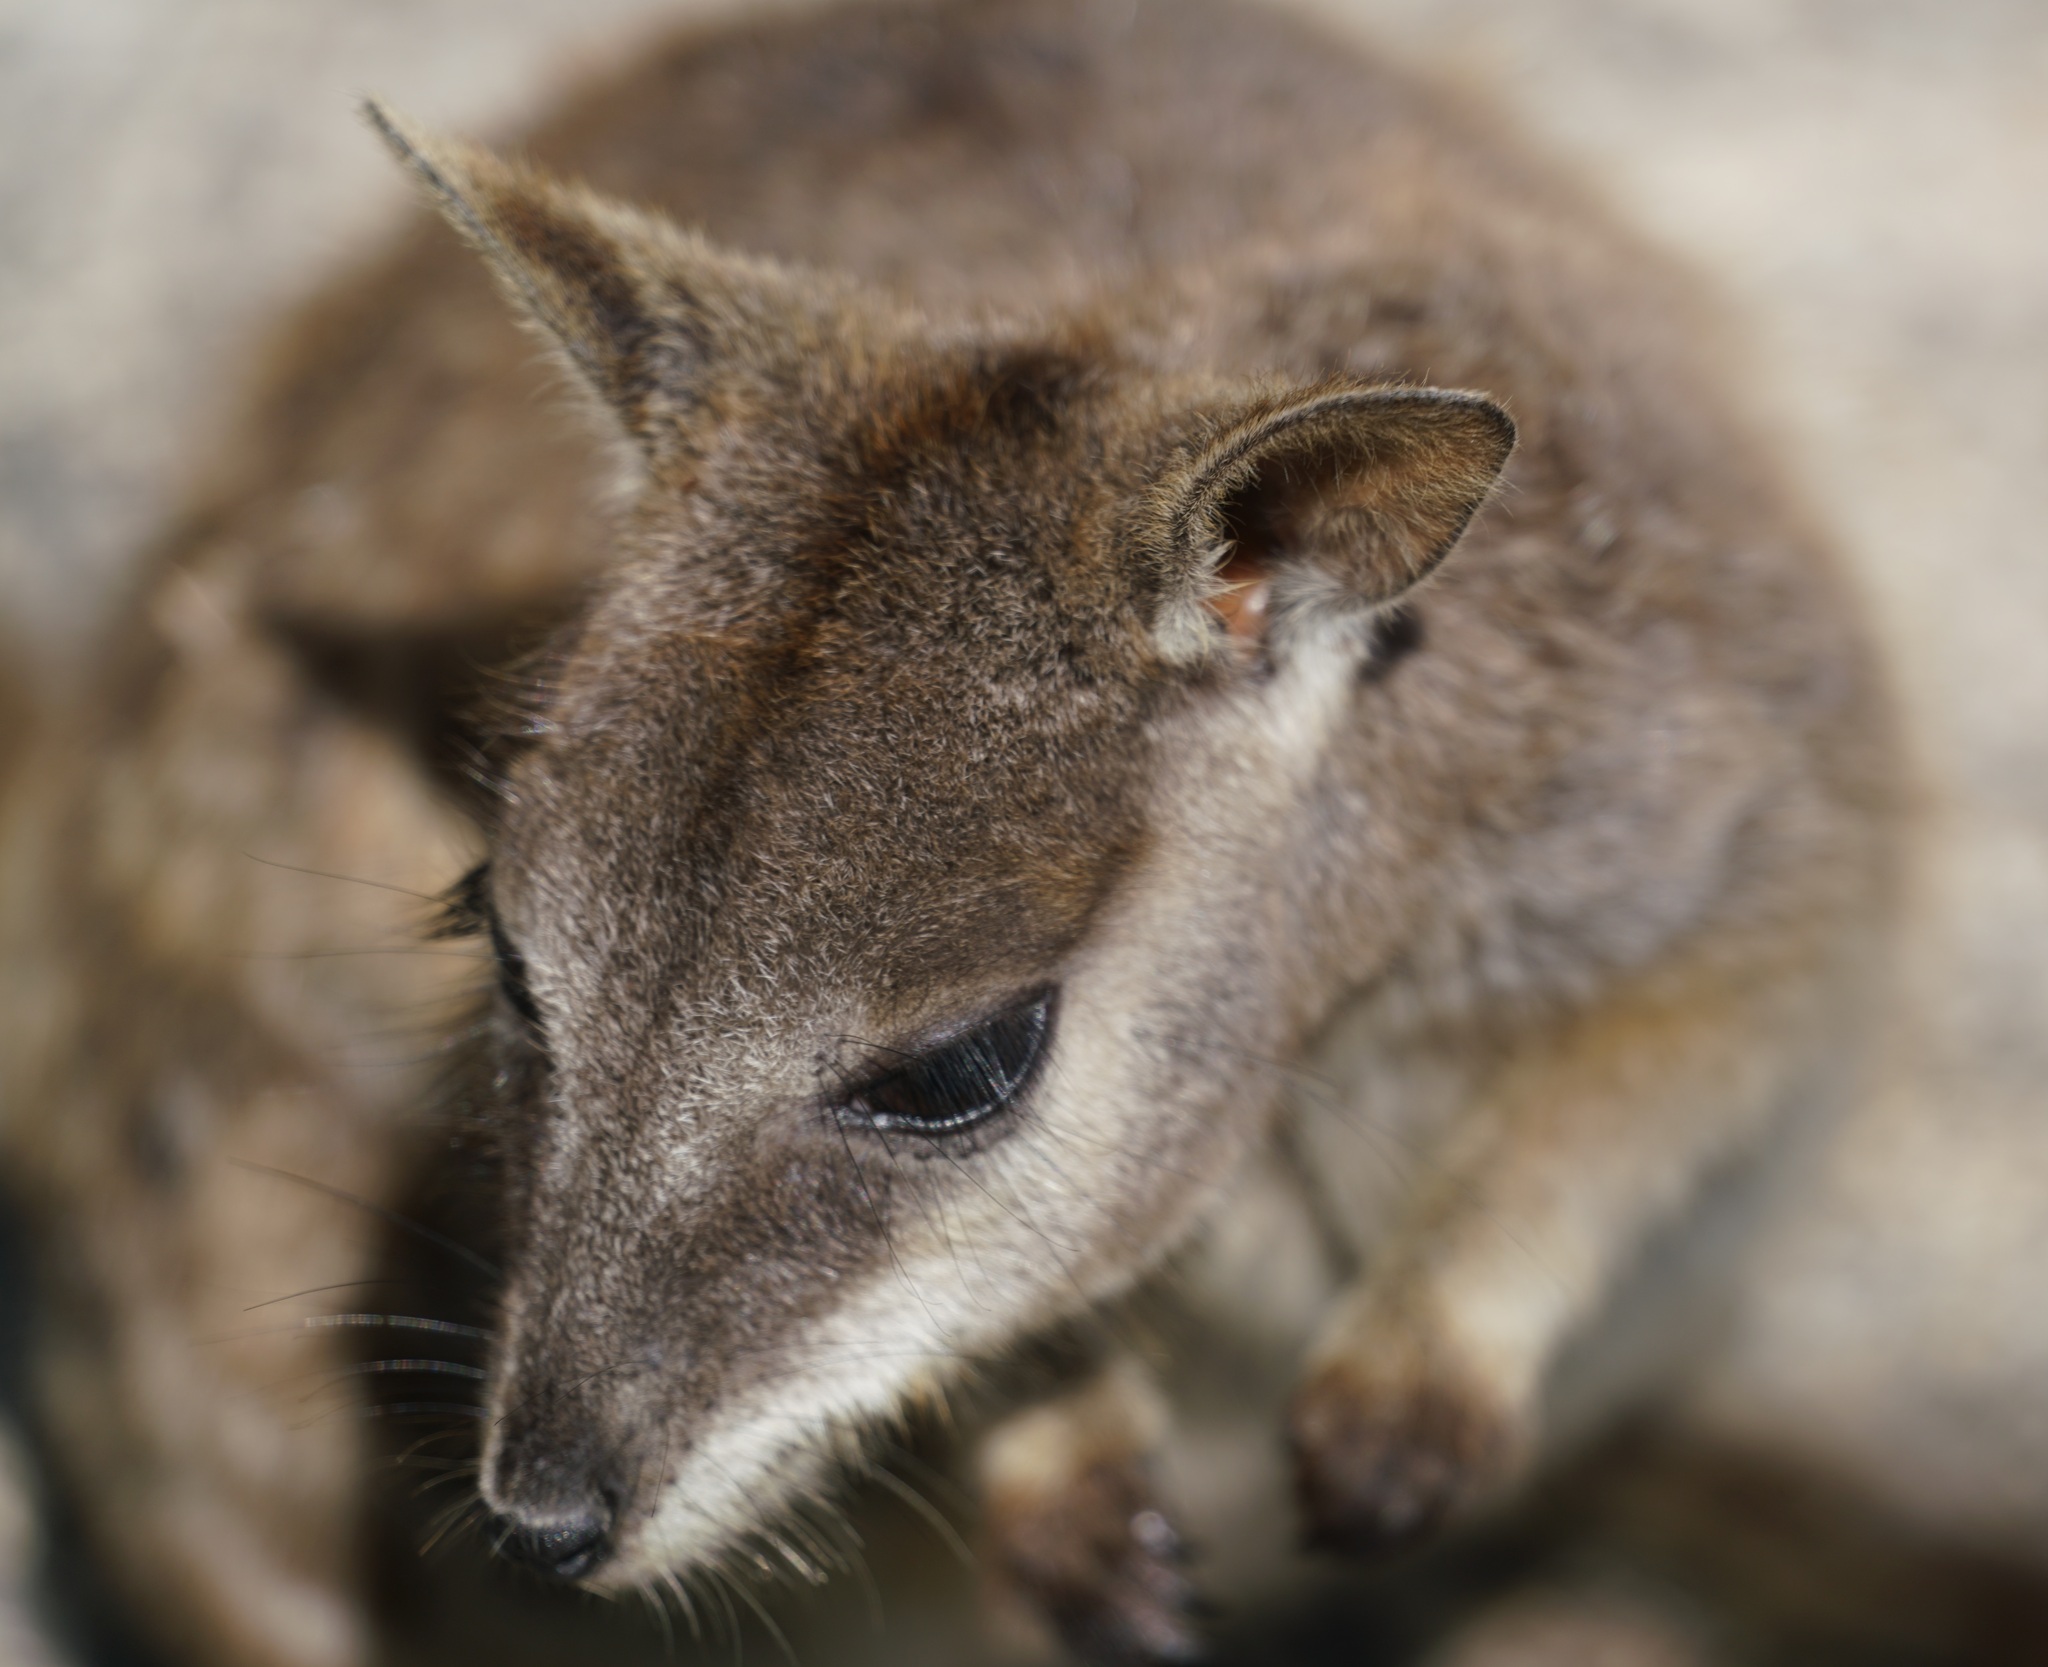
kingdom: Animalia
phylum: Chordata
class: Mammalia
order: Diprotodontia
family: Macropodidae
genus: Petrogale
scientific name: Petrogale mareeba
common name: Mareeba rock-wallaby
